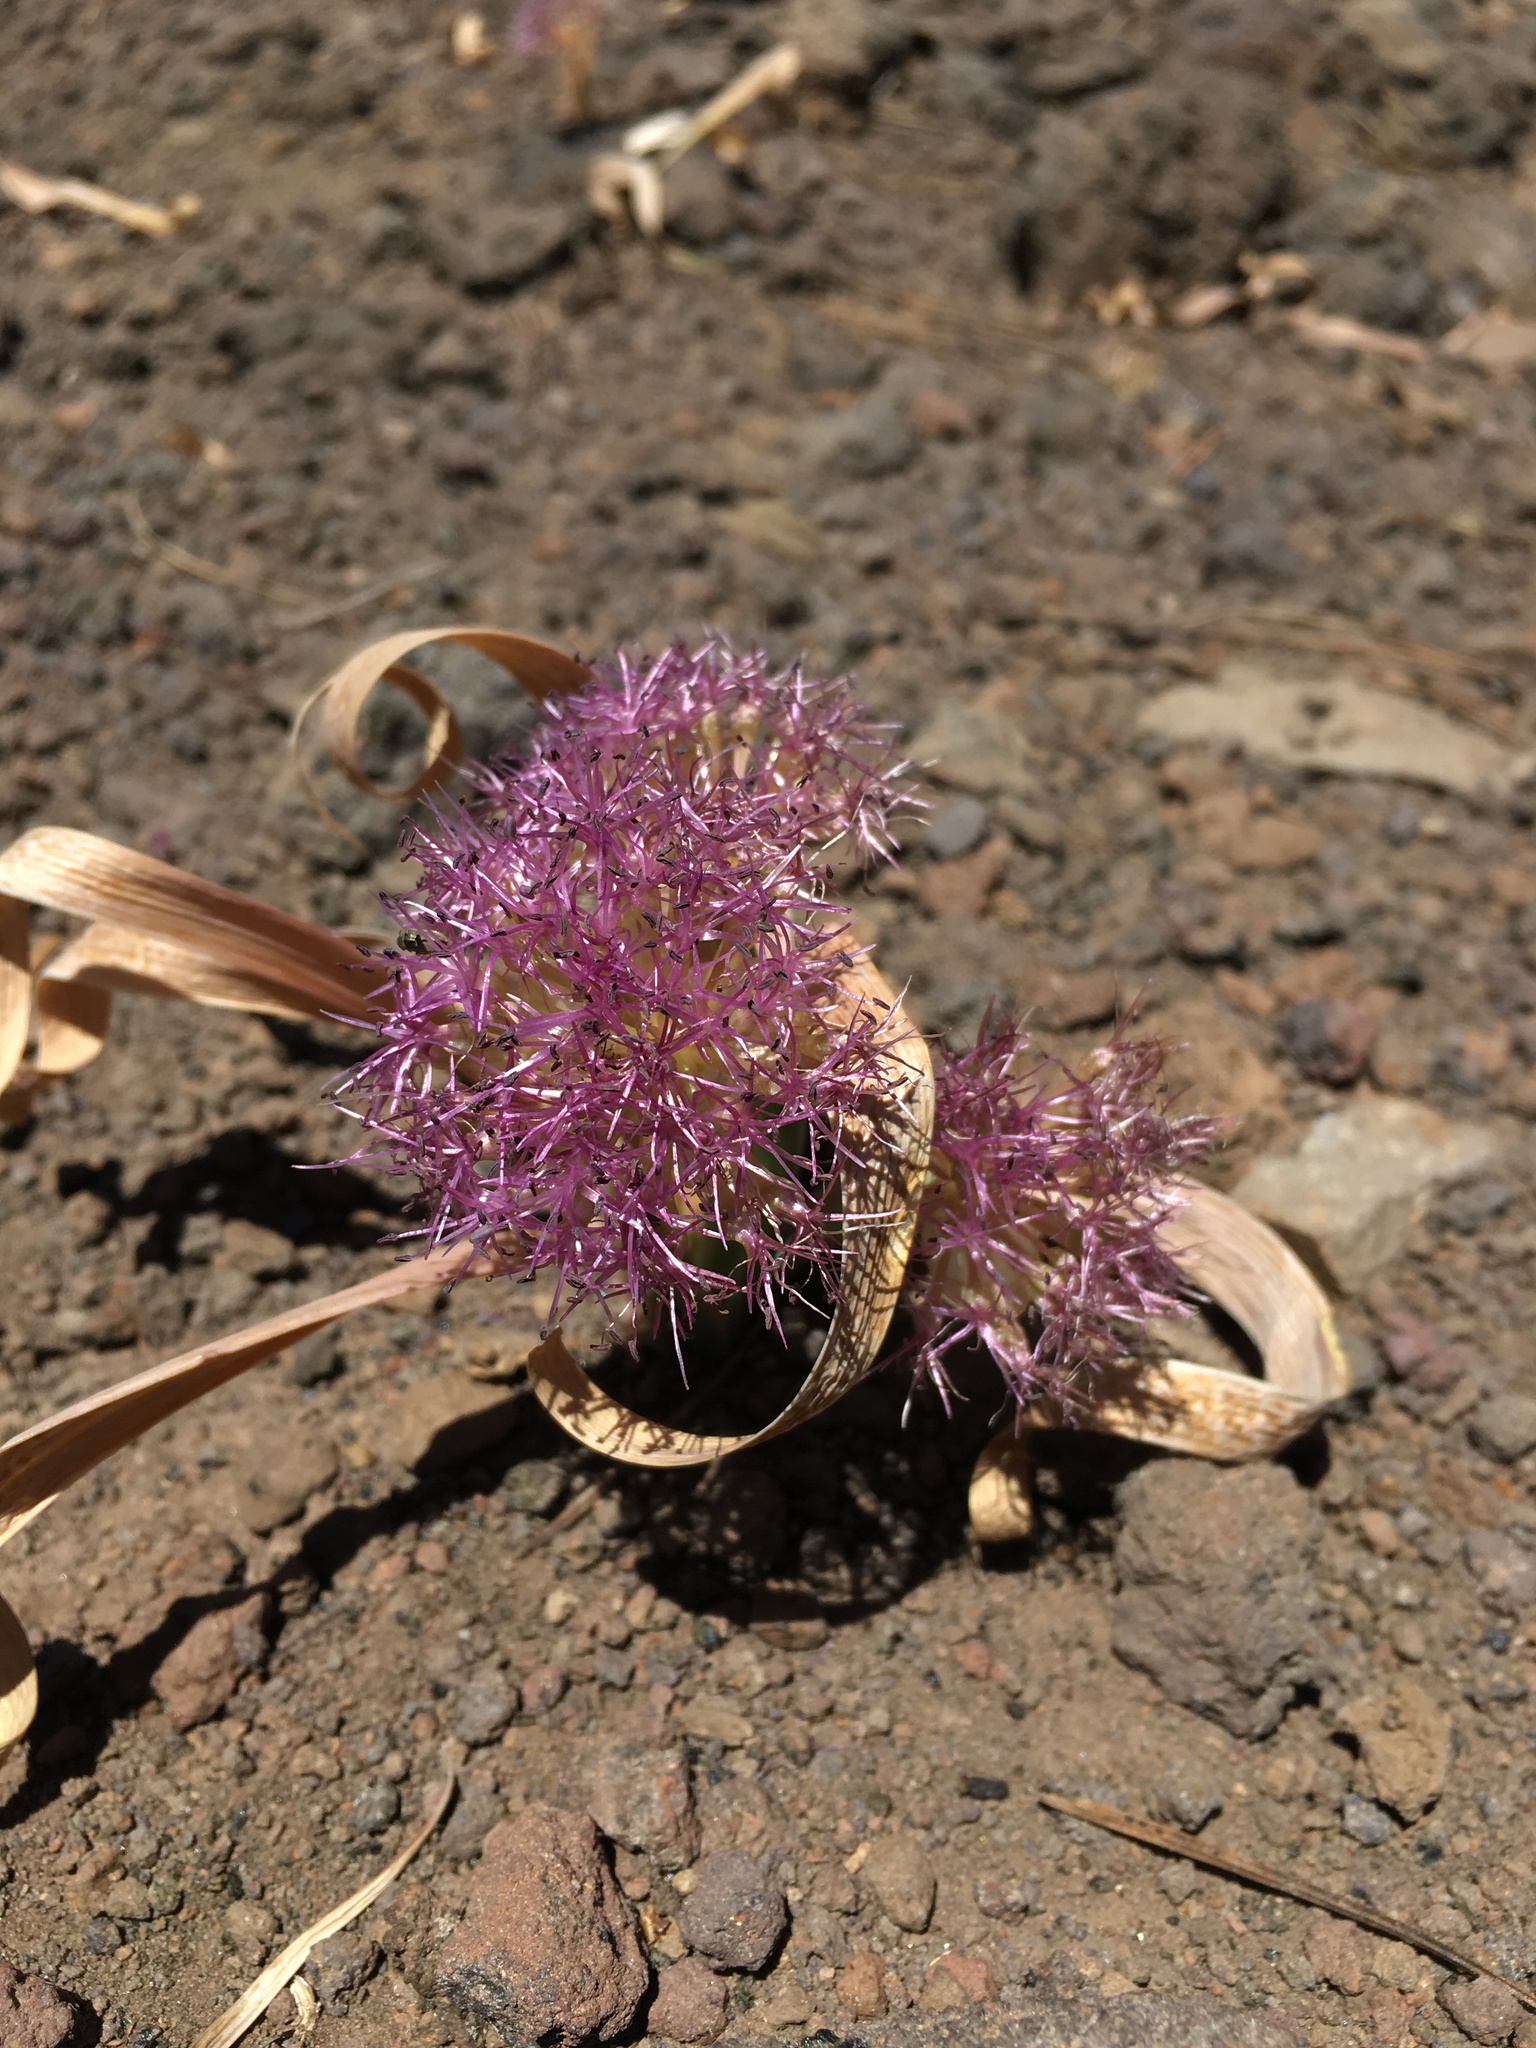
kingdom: Plantae
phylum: Tracheophyta
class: Liliopsida
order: Asparagales
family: Amaryllidaceae
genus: Allium
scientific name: Allium platycaule
